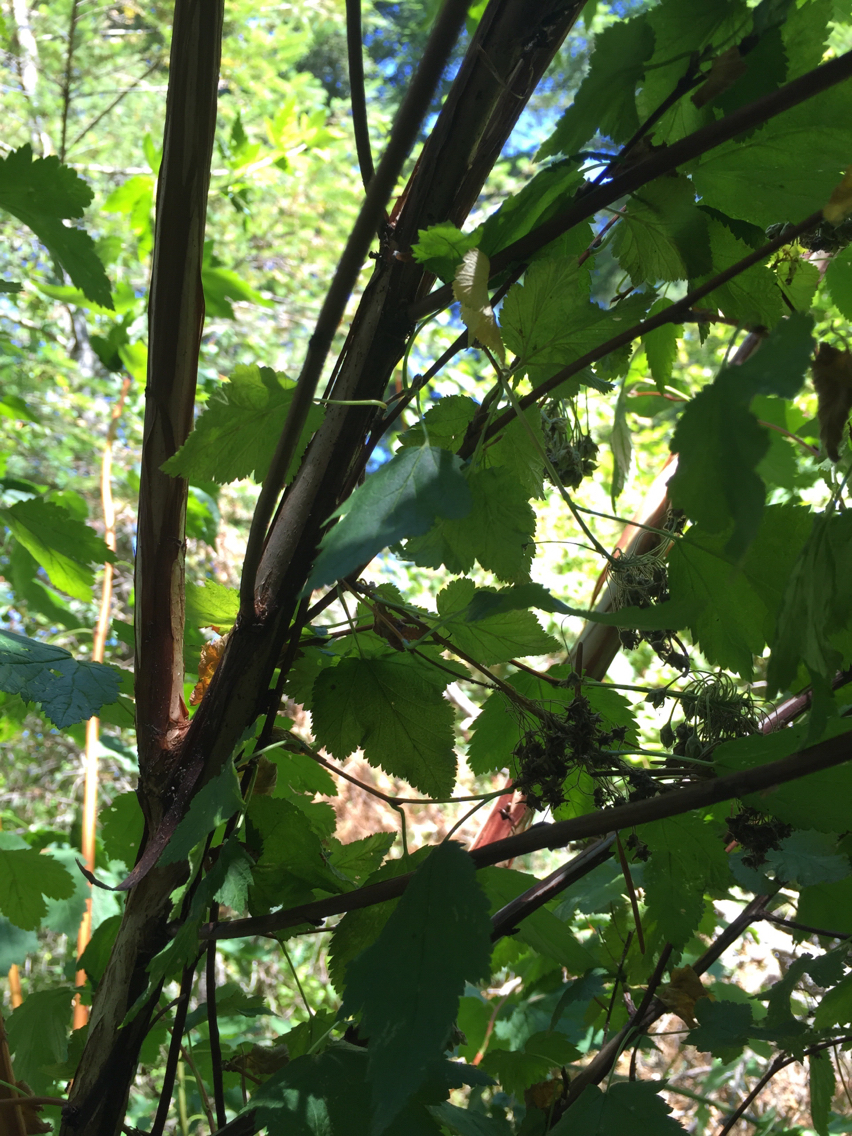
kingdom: Plantae
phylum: Tracheophyta
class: Magnoliopsida
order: Rosales
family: Rosaceae
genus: Physocarpus
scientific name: Physocarpus capitatus
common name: Pacific ninebark
